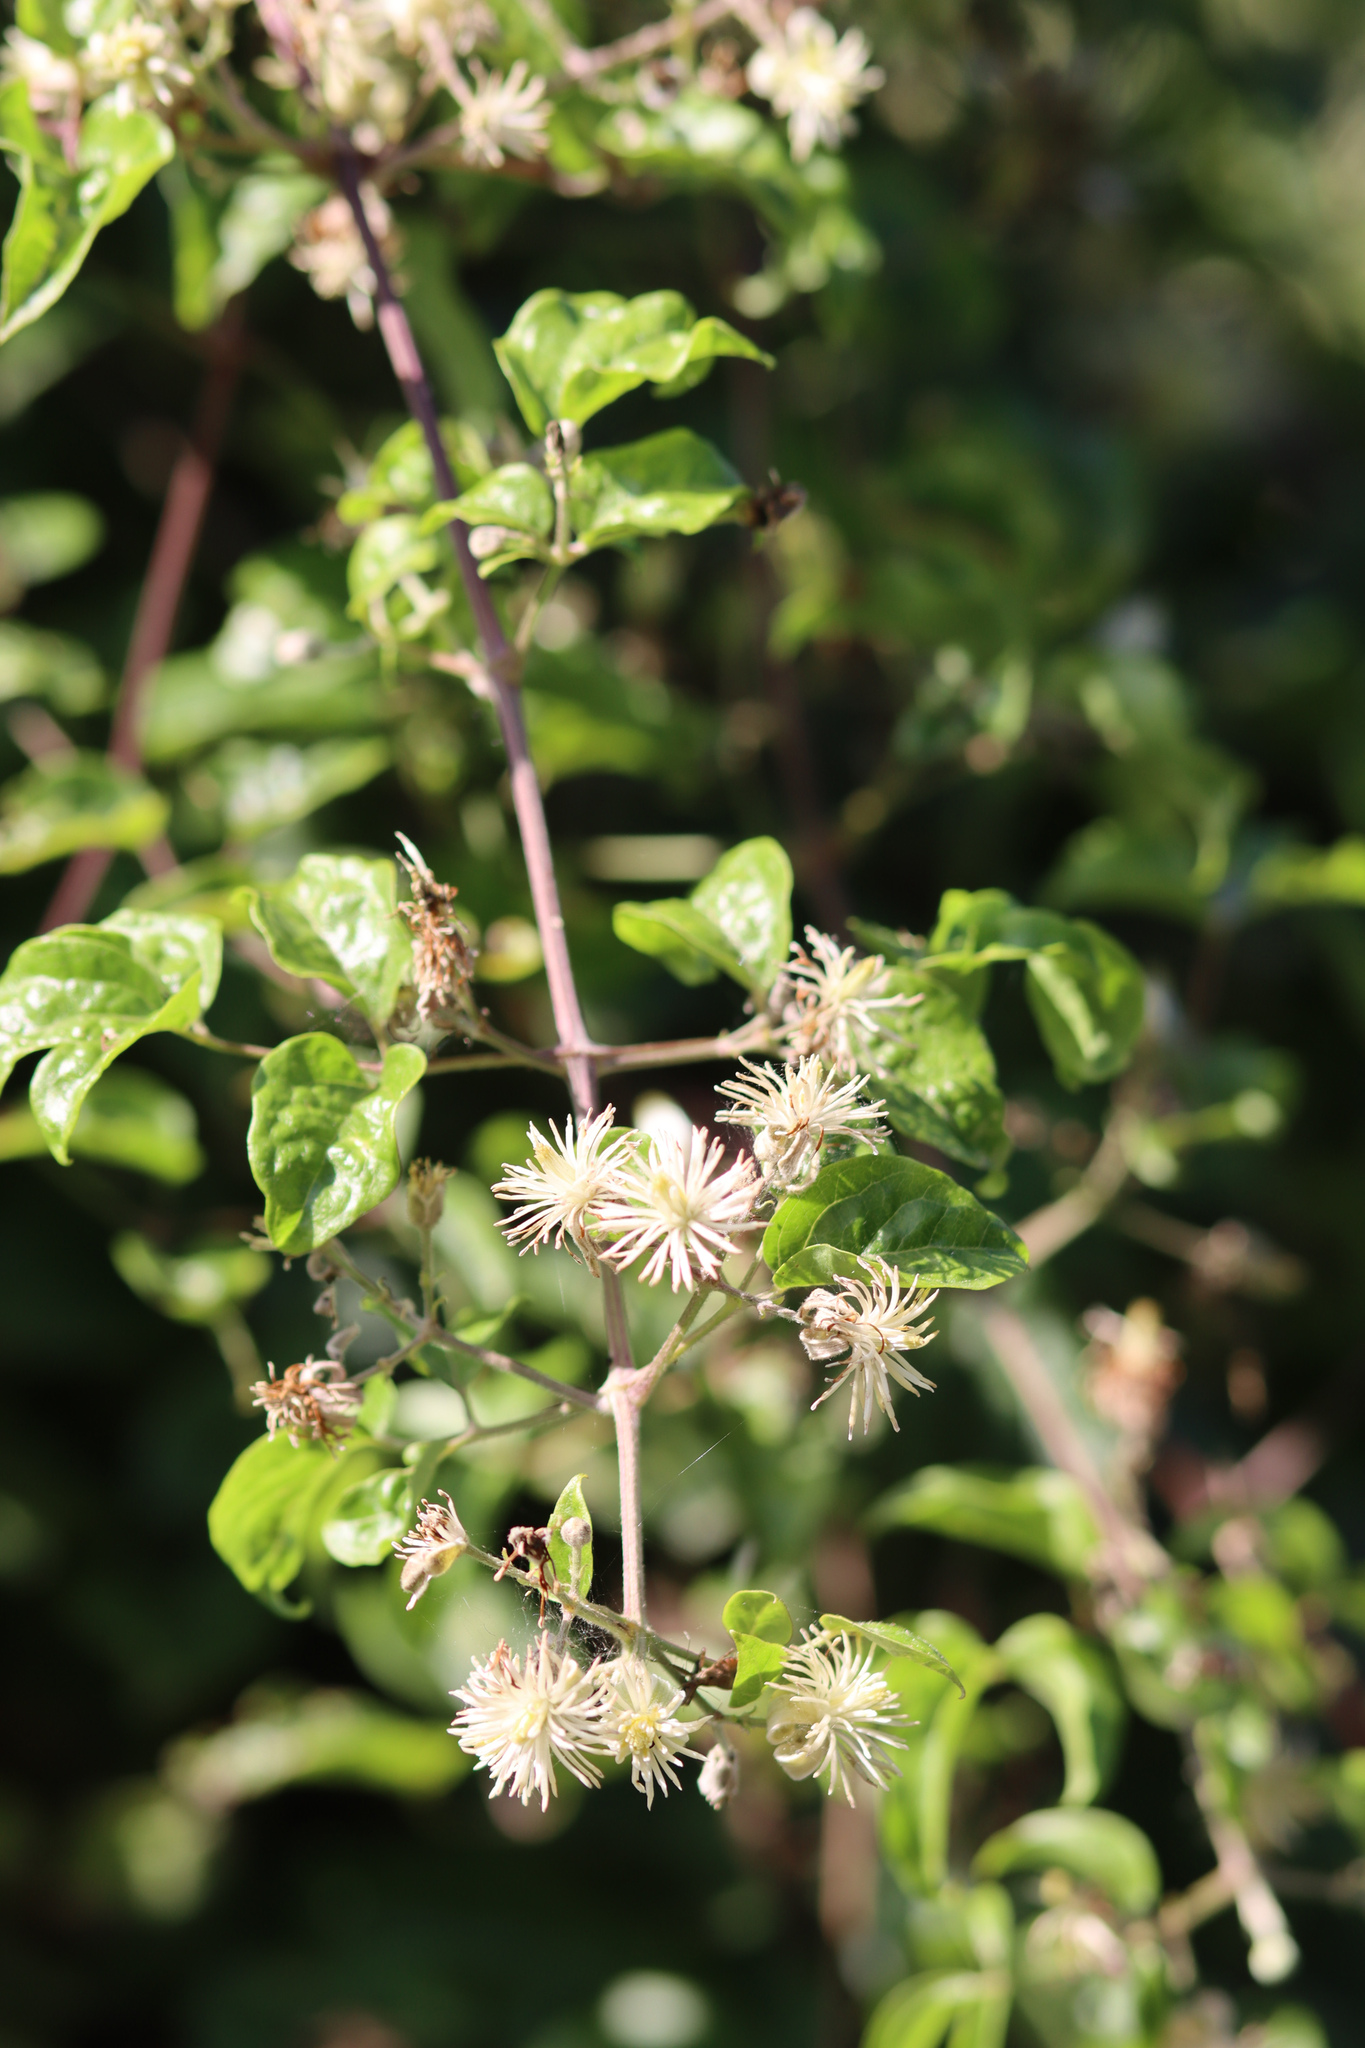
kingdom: Plantae
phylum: Tracheophyta
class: Magnoliopsida
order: Ranunculales
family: Ranunculaceae
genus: Clematis
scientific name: Clematis vitalba
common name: Evergreen clematis
